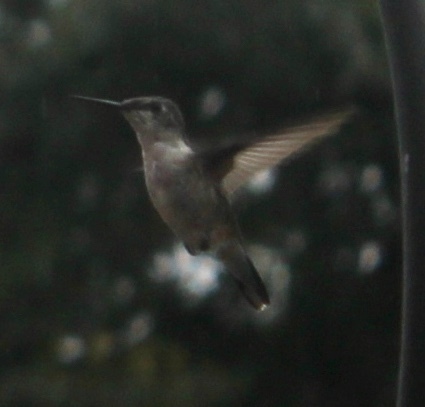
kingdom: Animalia
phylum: Chordata
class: Aves
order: Apodiformes
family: Trochilidae
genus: Archilochus
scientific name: Archilochus colubris
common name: Ruby-throated hummingbird
